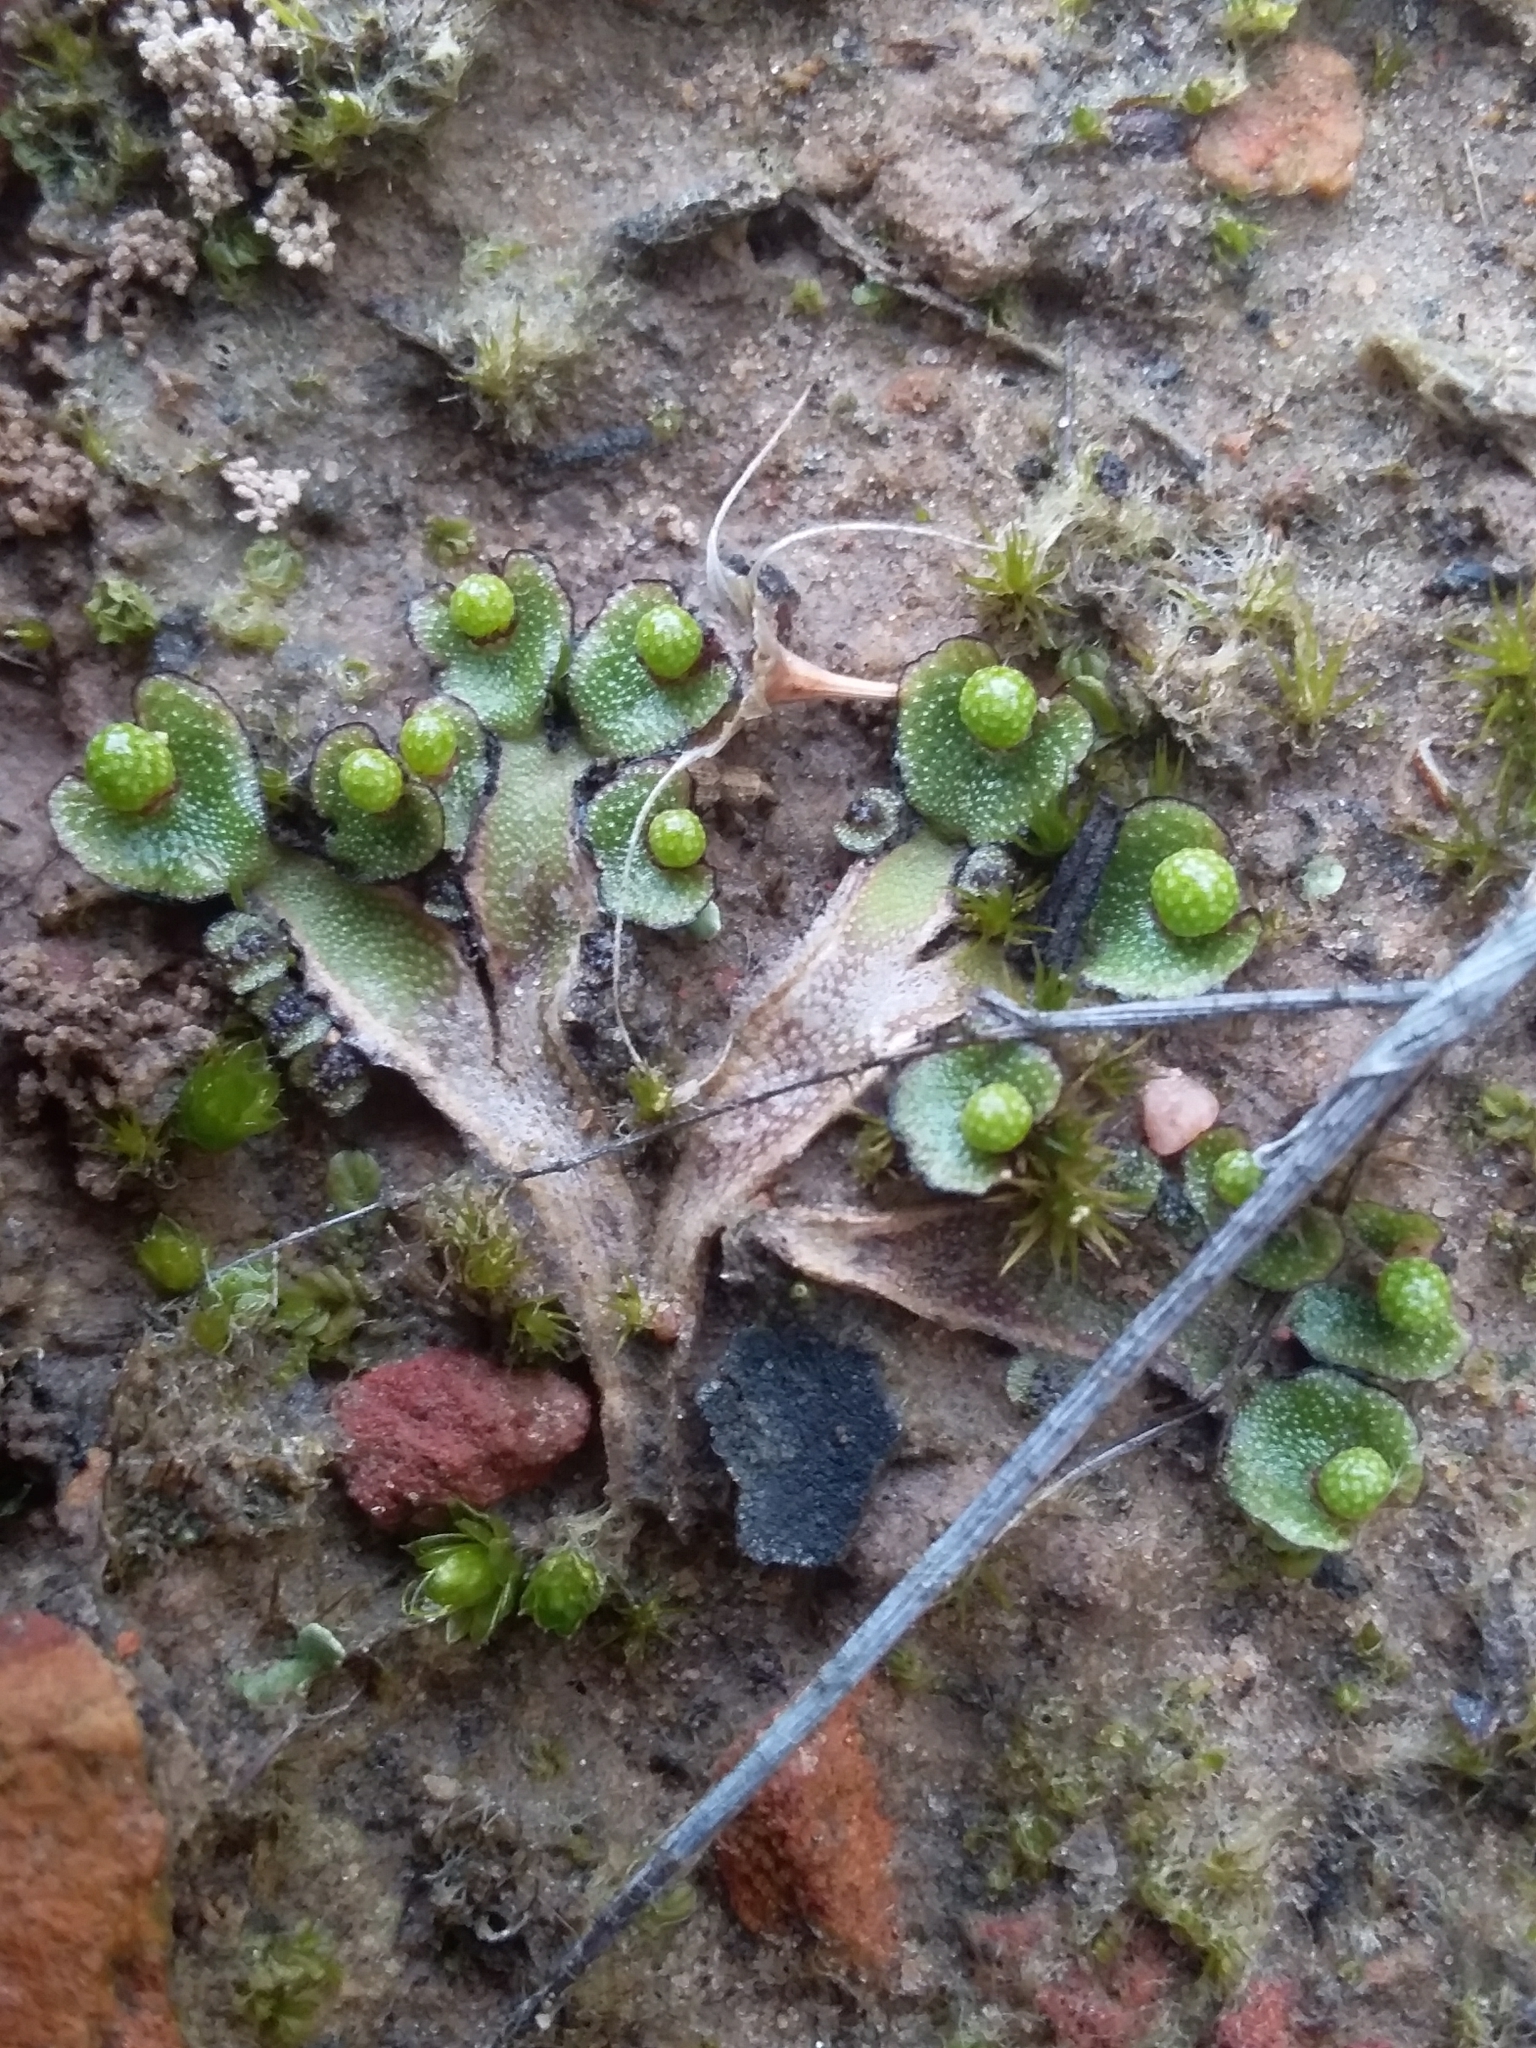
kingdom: Plantae
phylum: Marchantiophyta
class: Marchantiopsida
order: Marchantiales
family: Aytoniaceae
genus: Asterella
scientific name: Asterella drummondii
